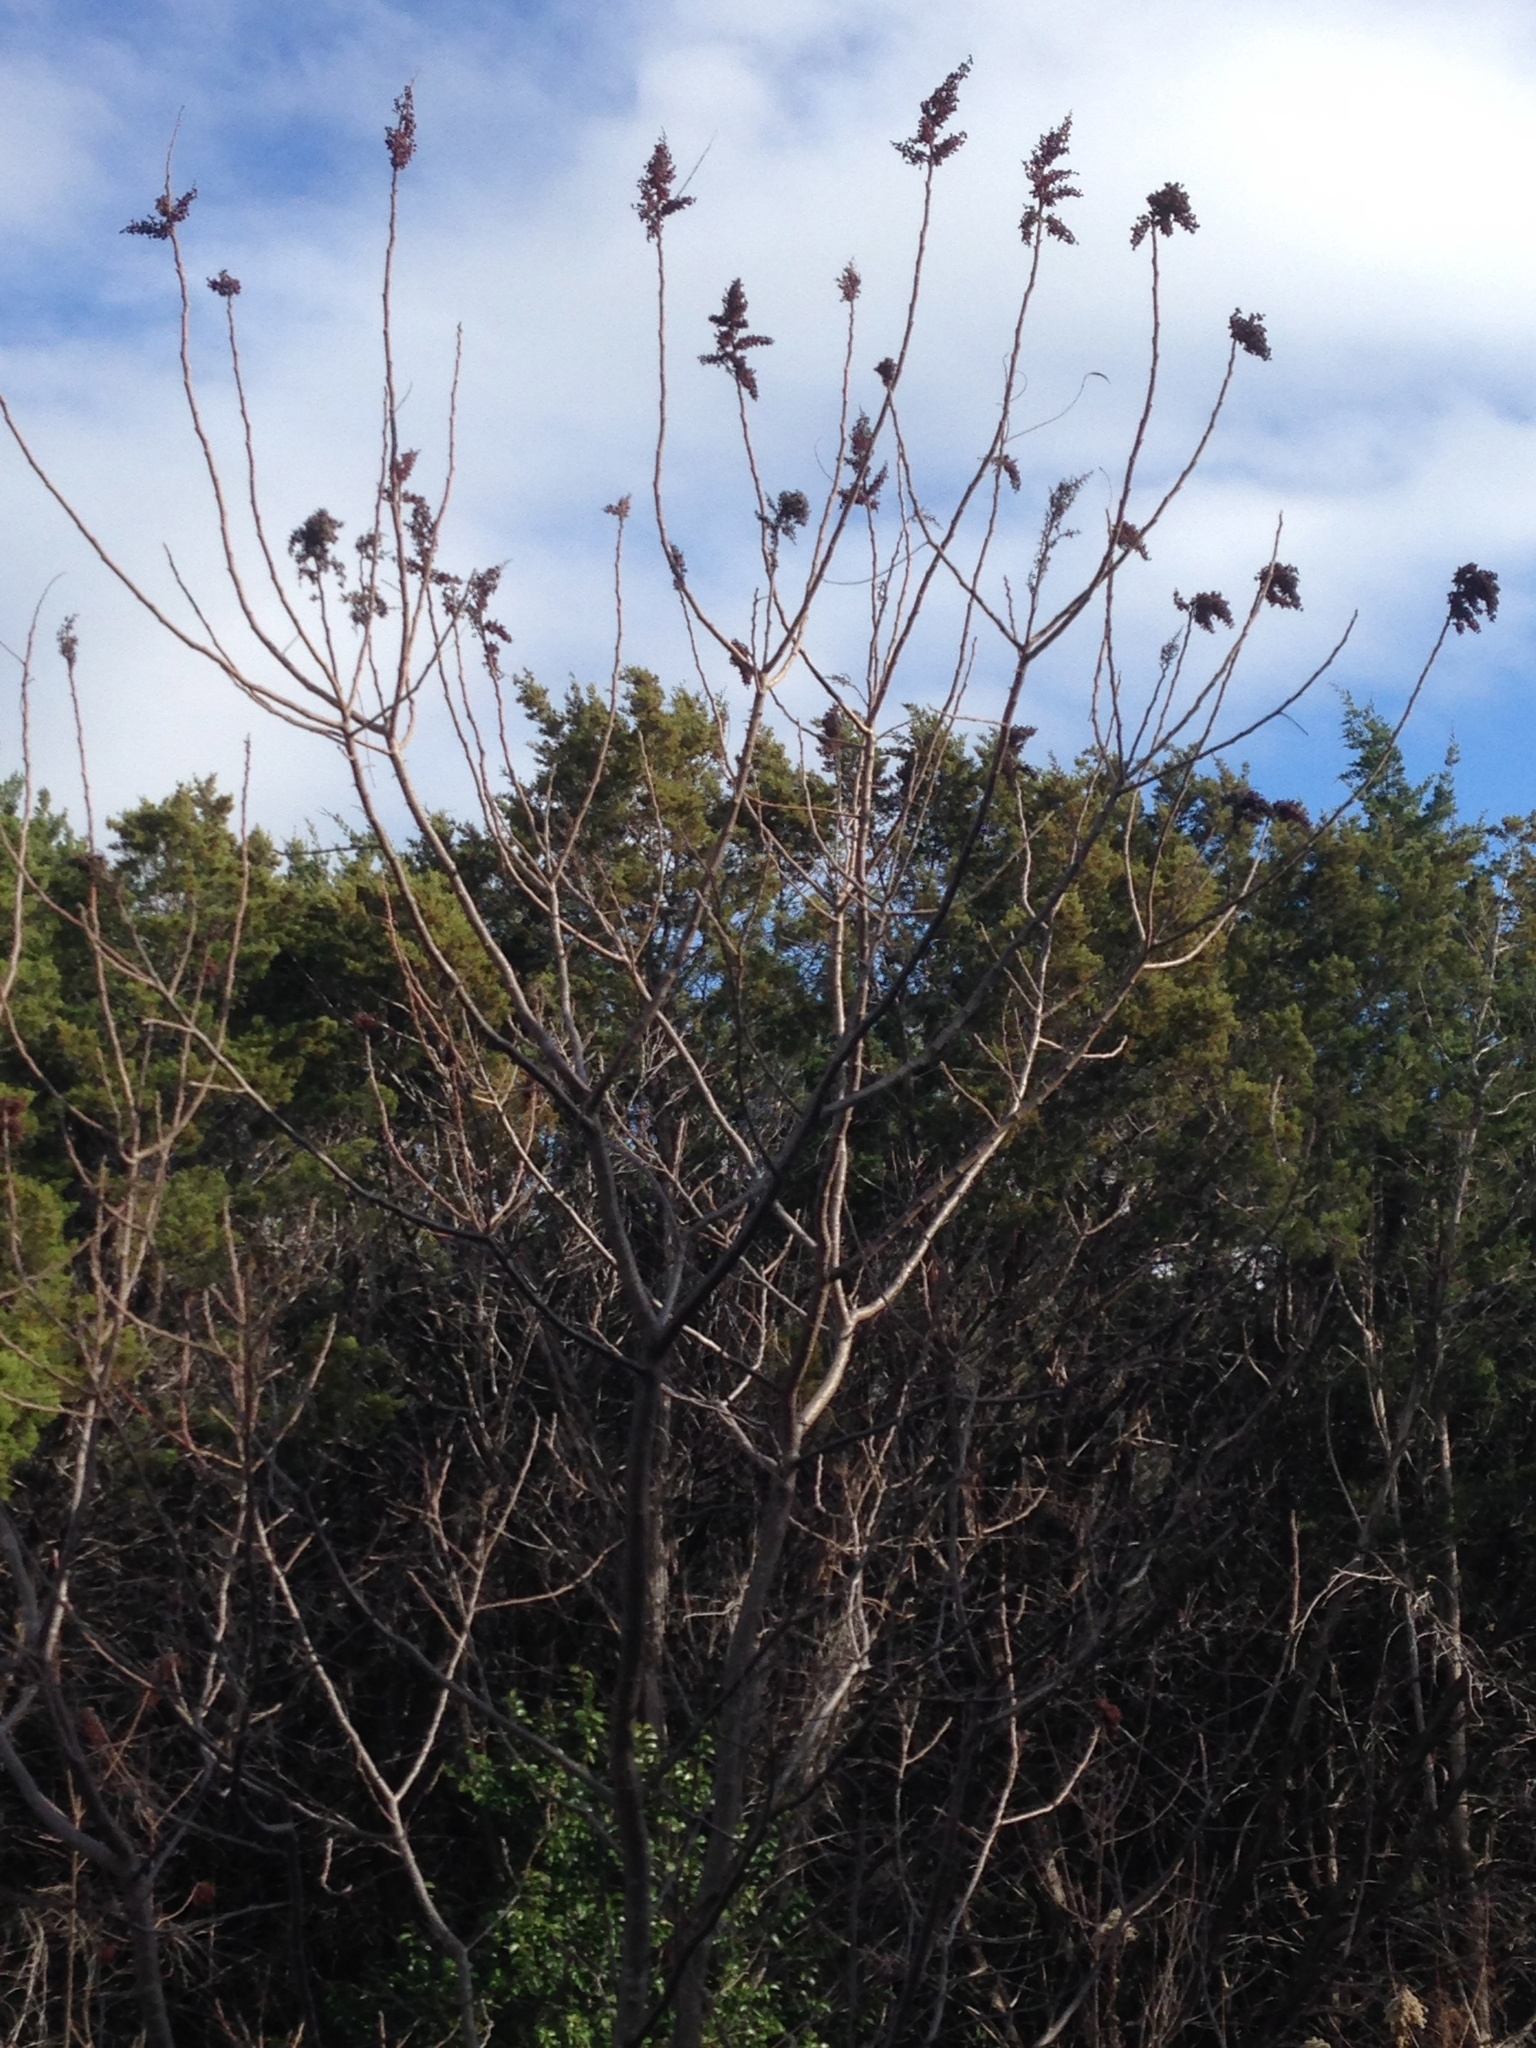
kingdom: Plantae
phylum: Tracheophyta
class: Magnoliopsida
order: Sapindales
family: Anacardiaceae
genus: Rhus
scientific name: Rhus lanceolata
